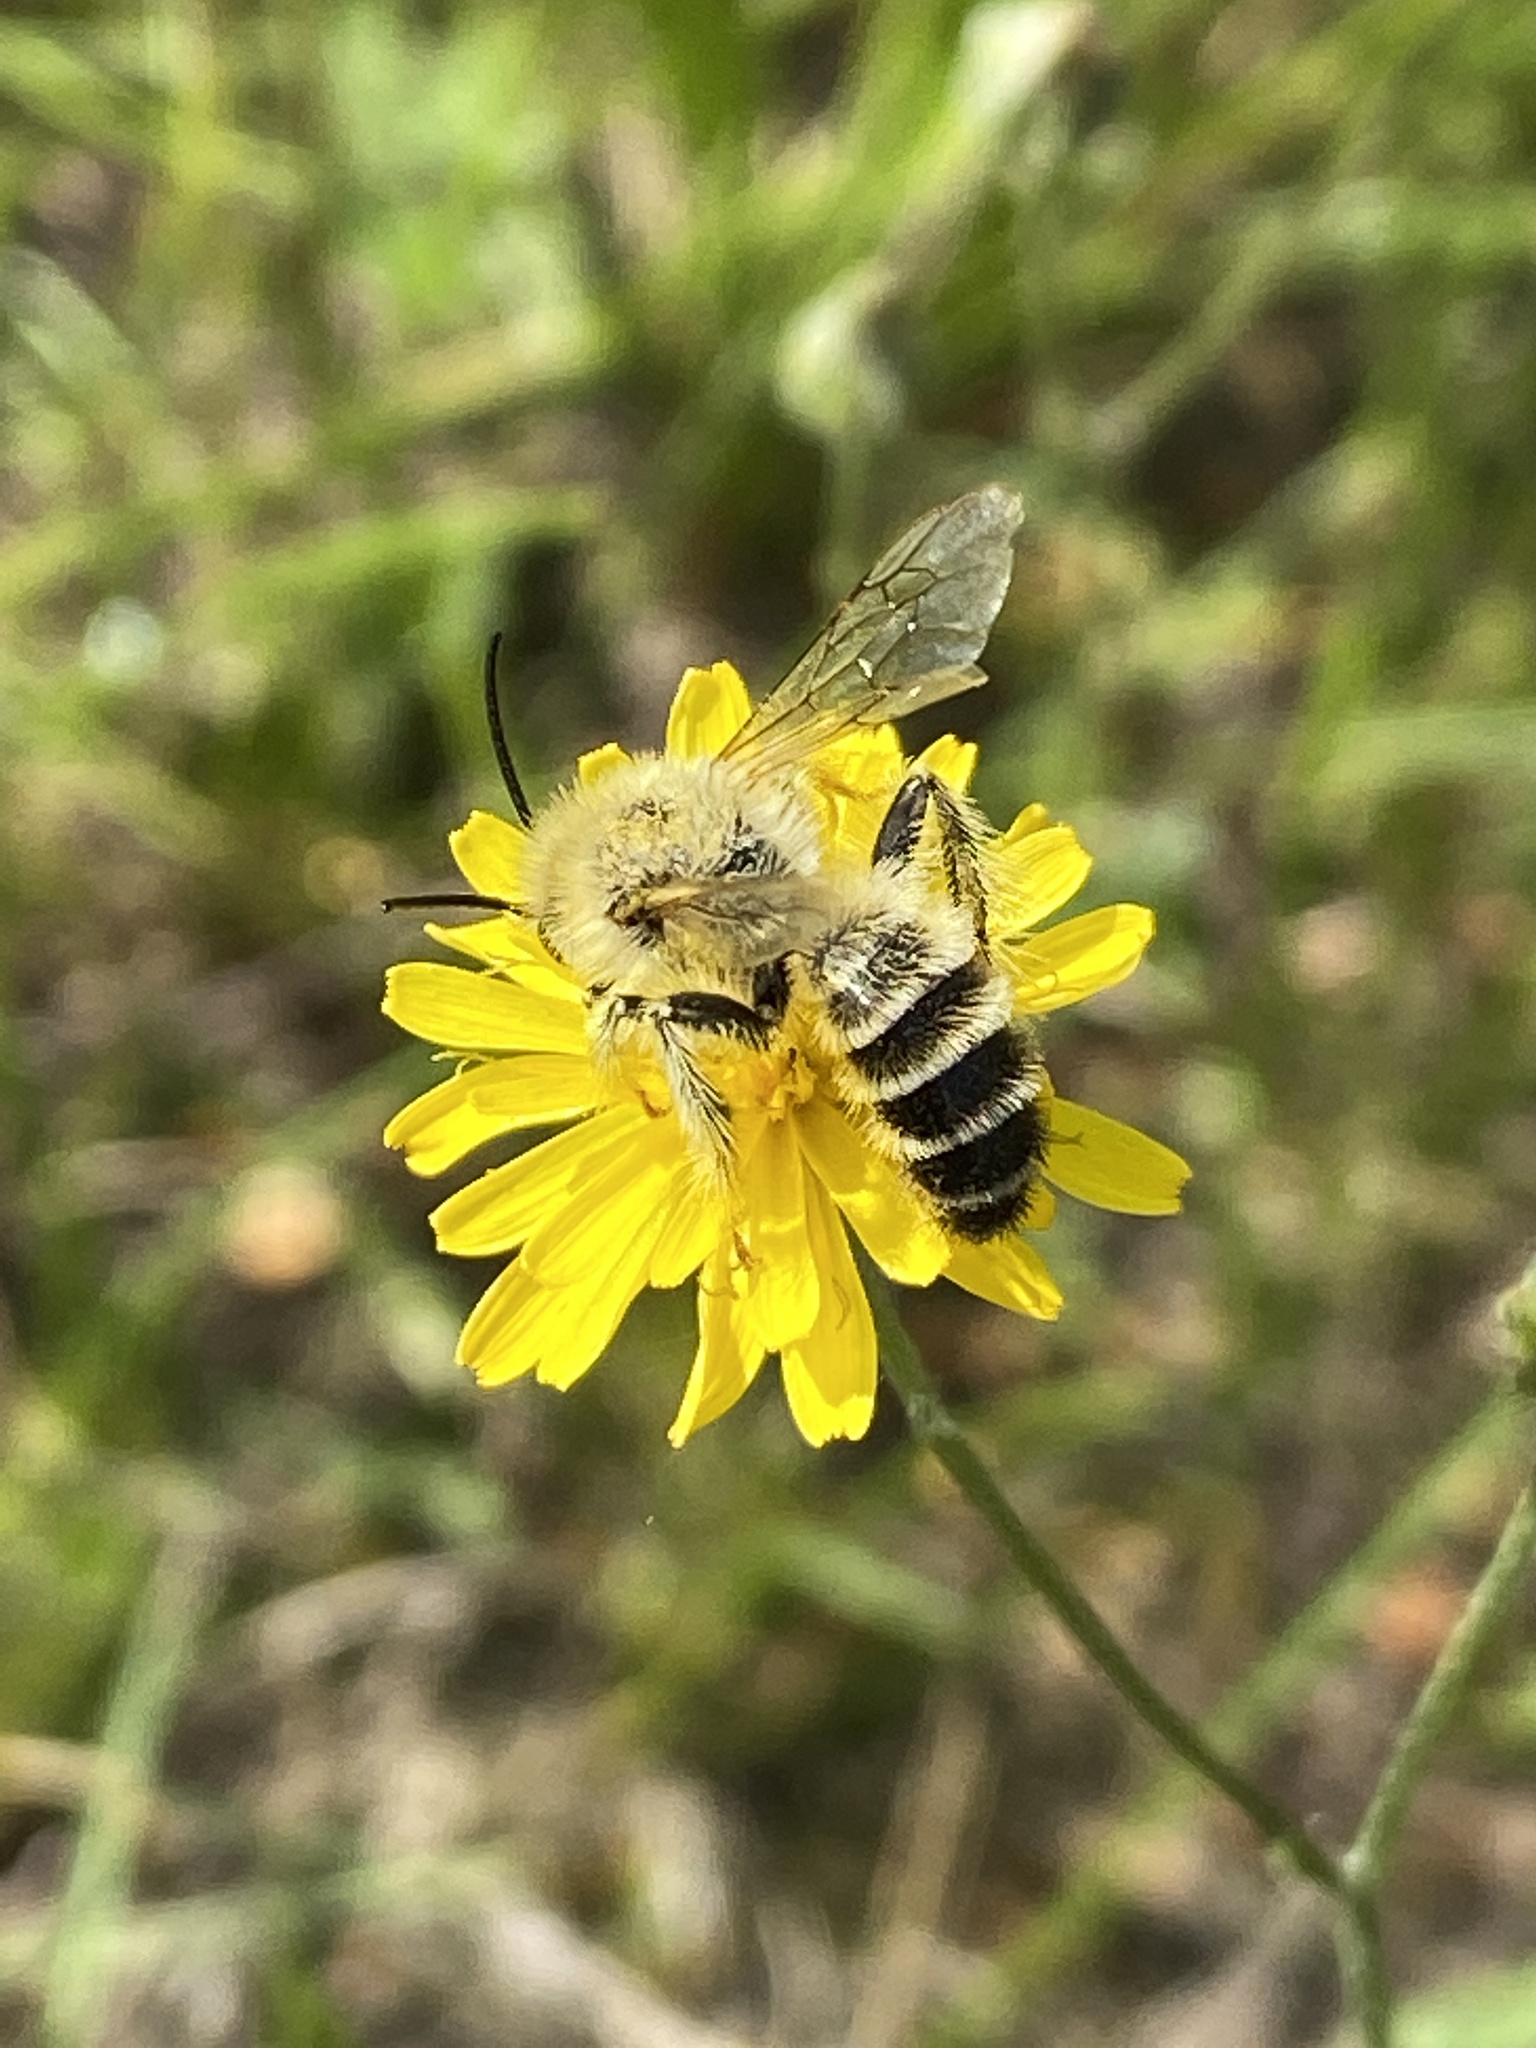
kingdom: Animalia
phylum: Arthropoda
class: Insecta
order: Hymenoptera
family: Melittidae
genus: Dasypoda
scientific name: Dasypoda hirtipes
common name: Pantaloon bee
